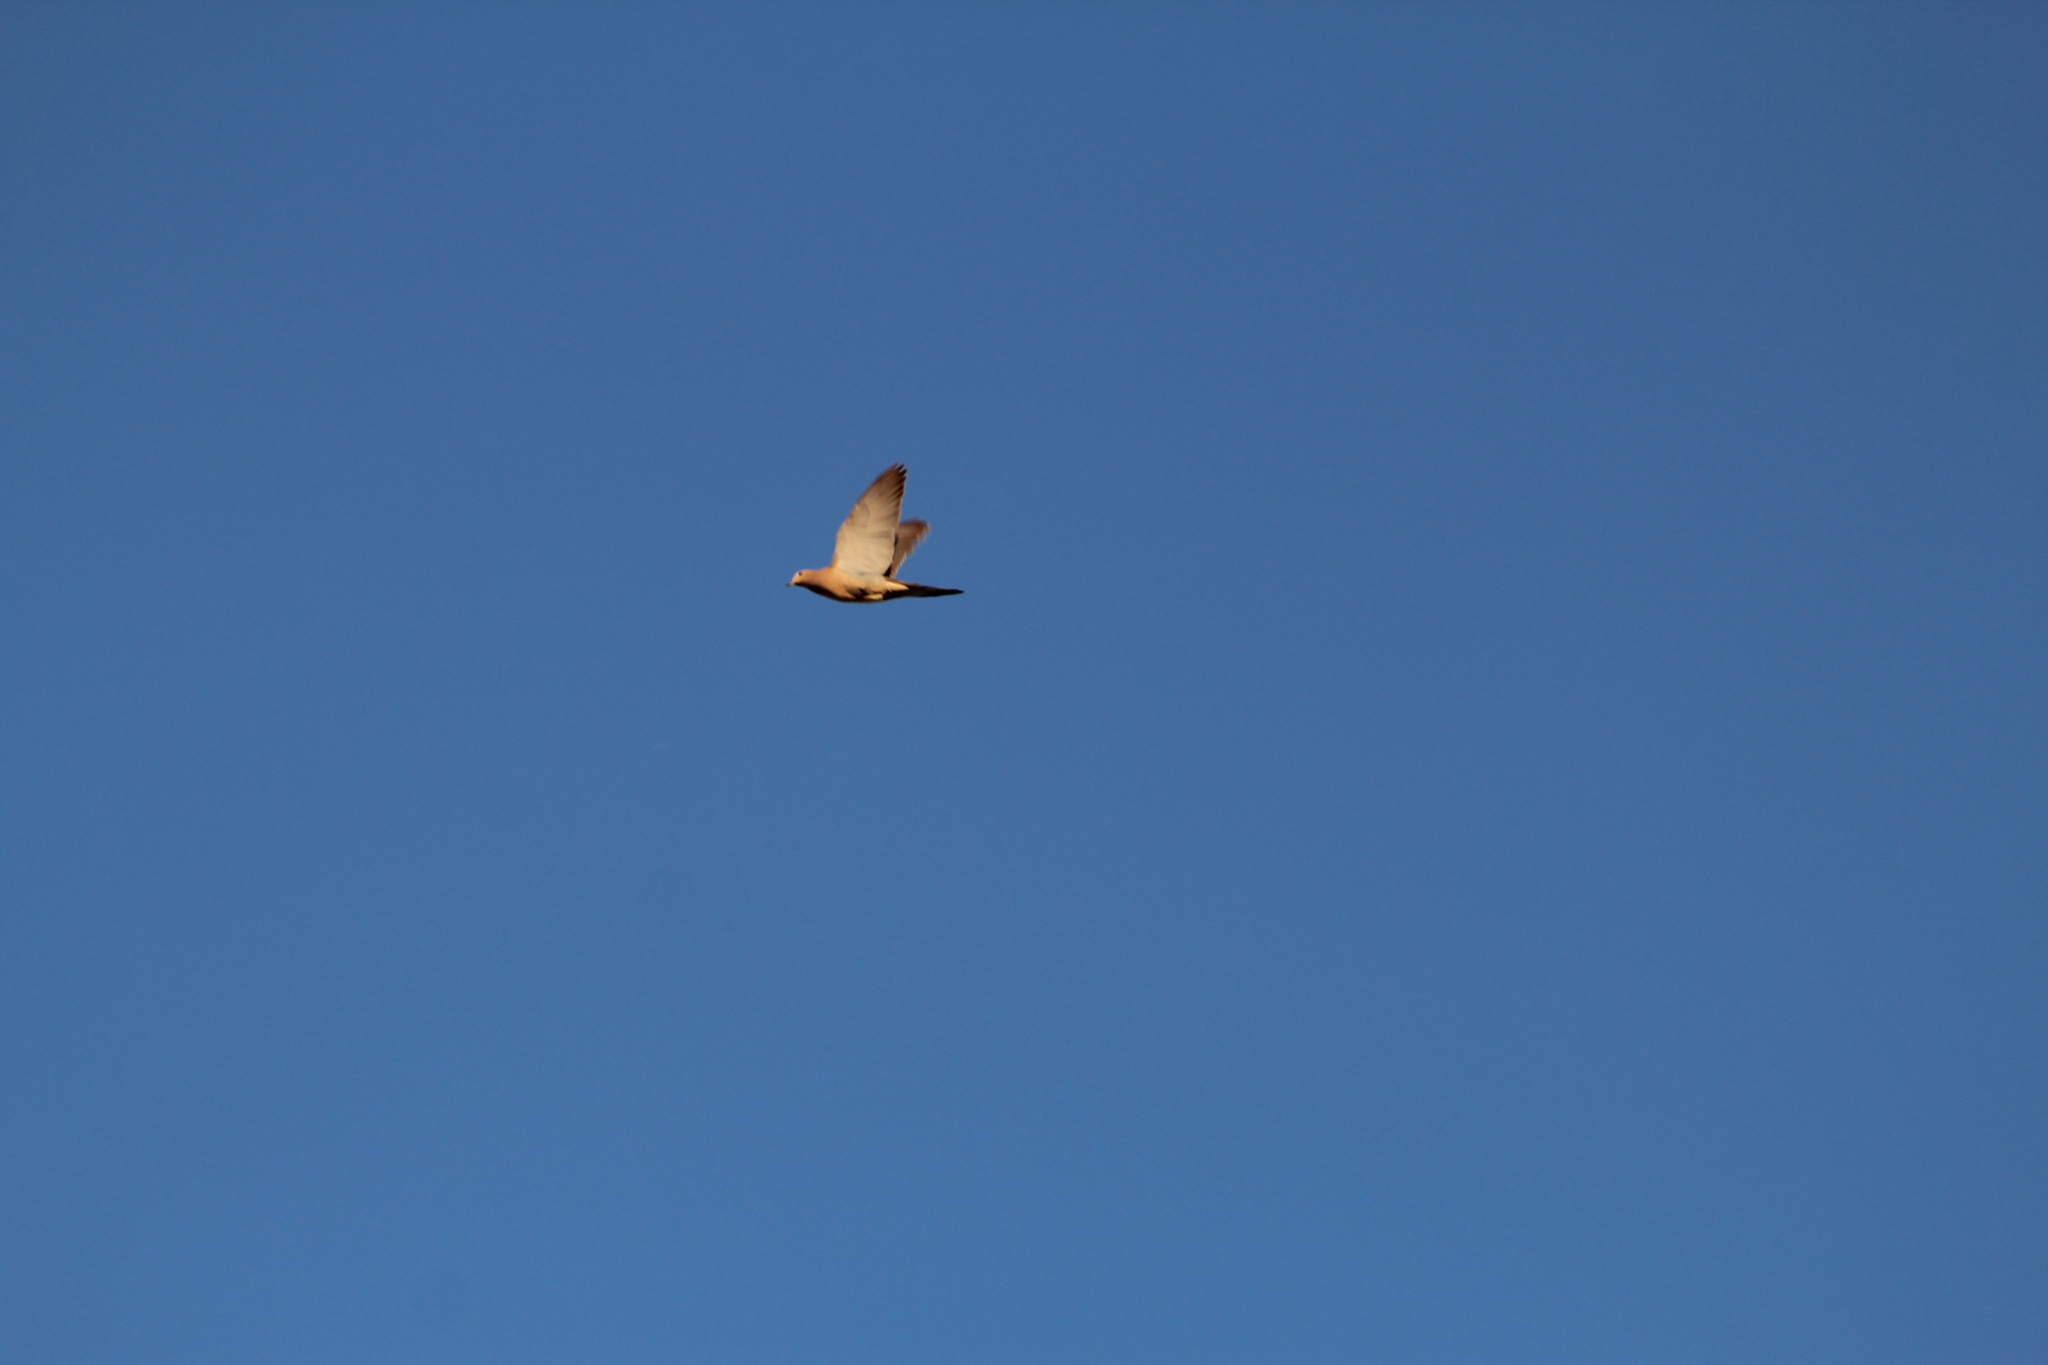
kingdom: Animalia
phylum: Chordata
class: Aves
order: Columbiformes
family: Columbidae
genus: Zenaida
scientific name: Zenaida macroura
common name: Mourning dove
